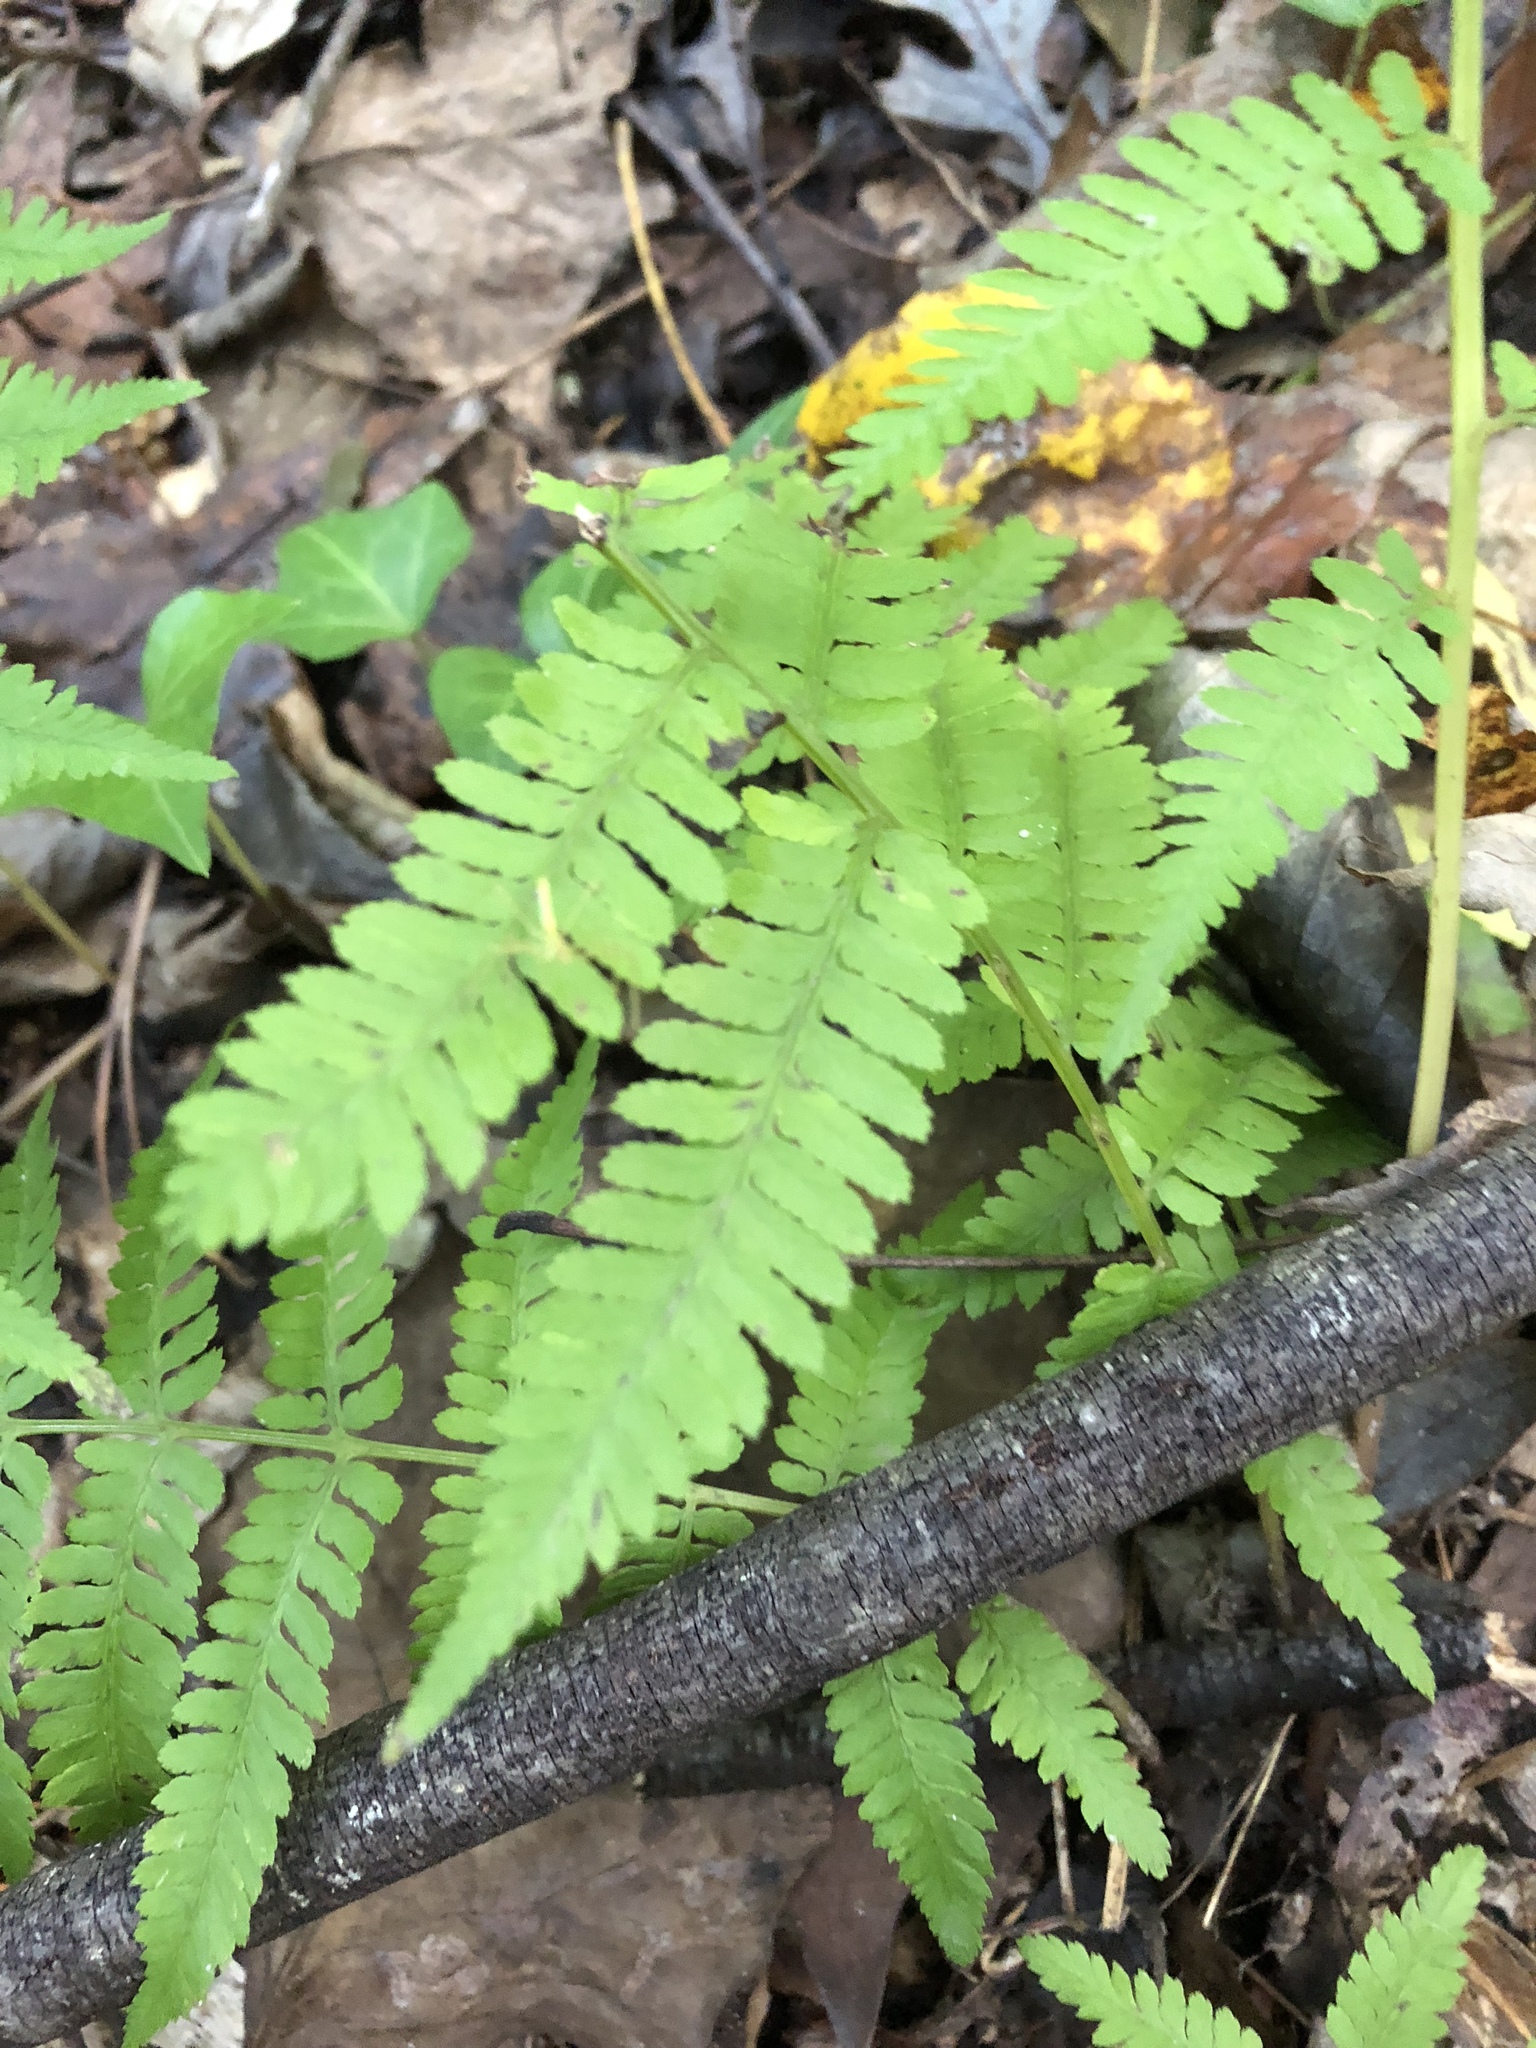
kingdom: Plantae
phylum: Tracheophyta
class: Polypodiopsida
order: Polypodiales
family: Athyriaceae
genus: Athyrium
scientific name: Athyrium asplenioides
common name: Southern lady fern
